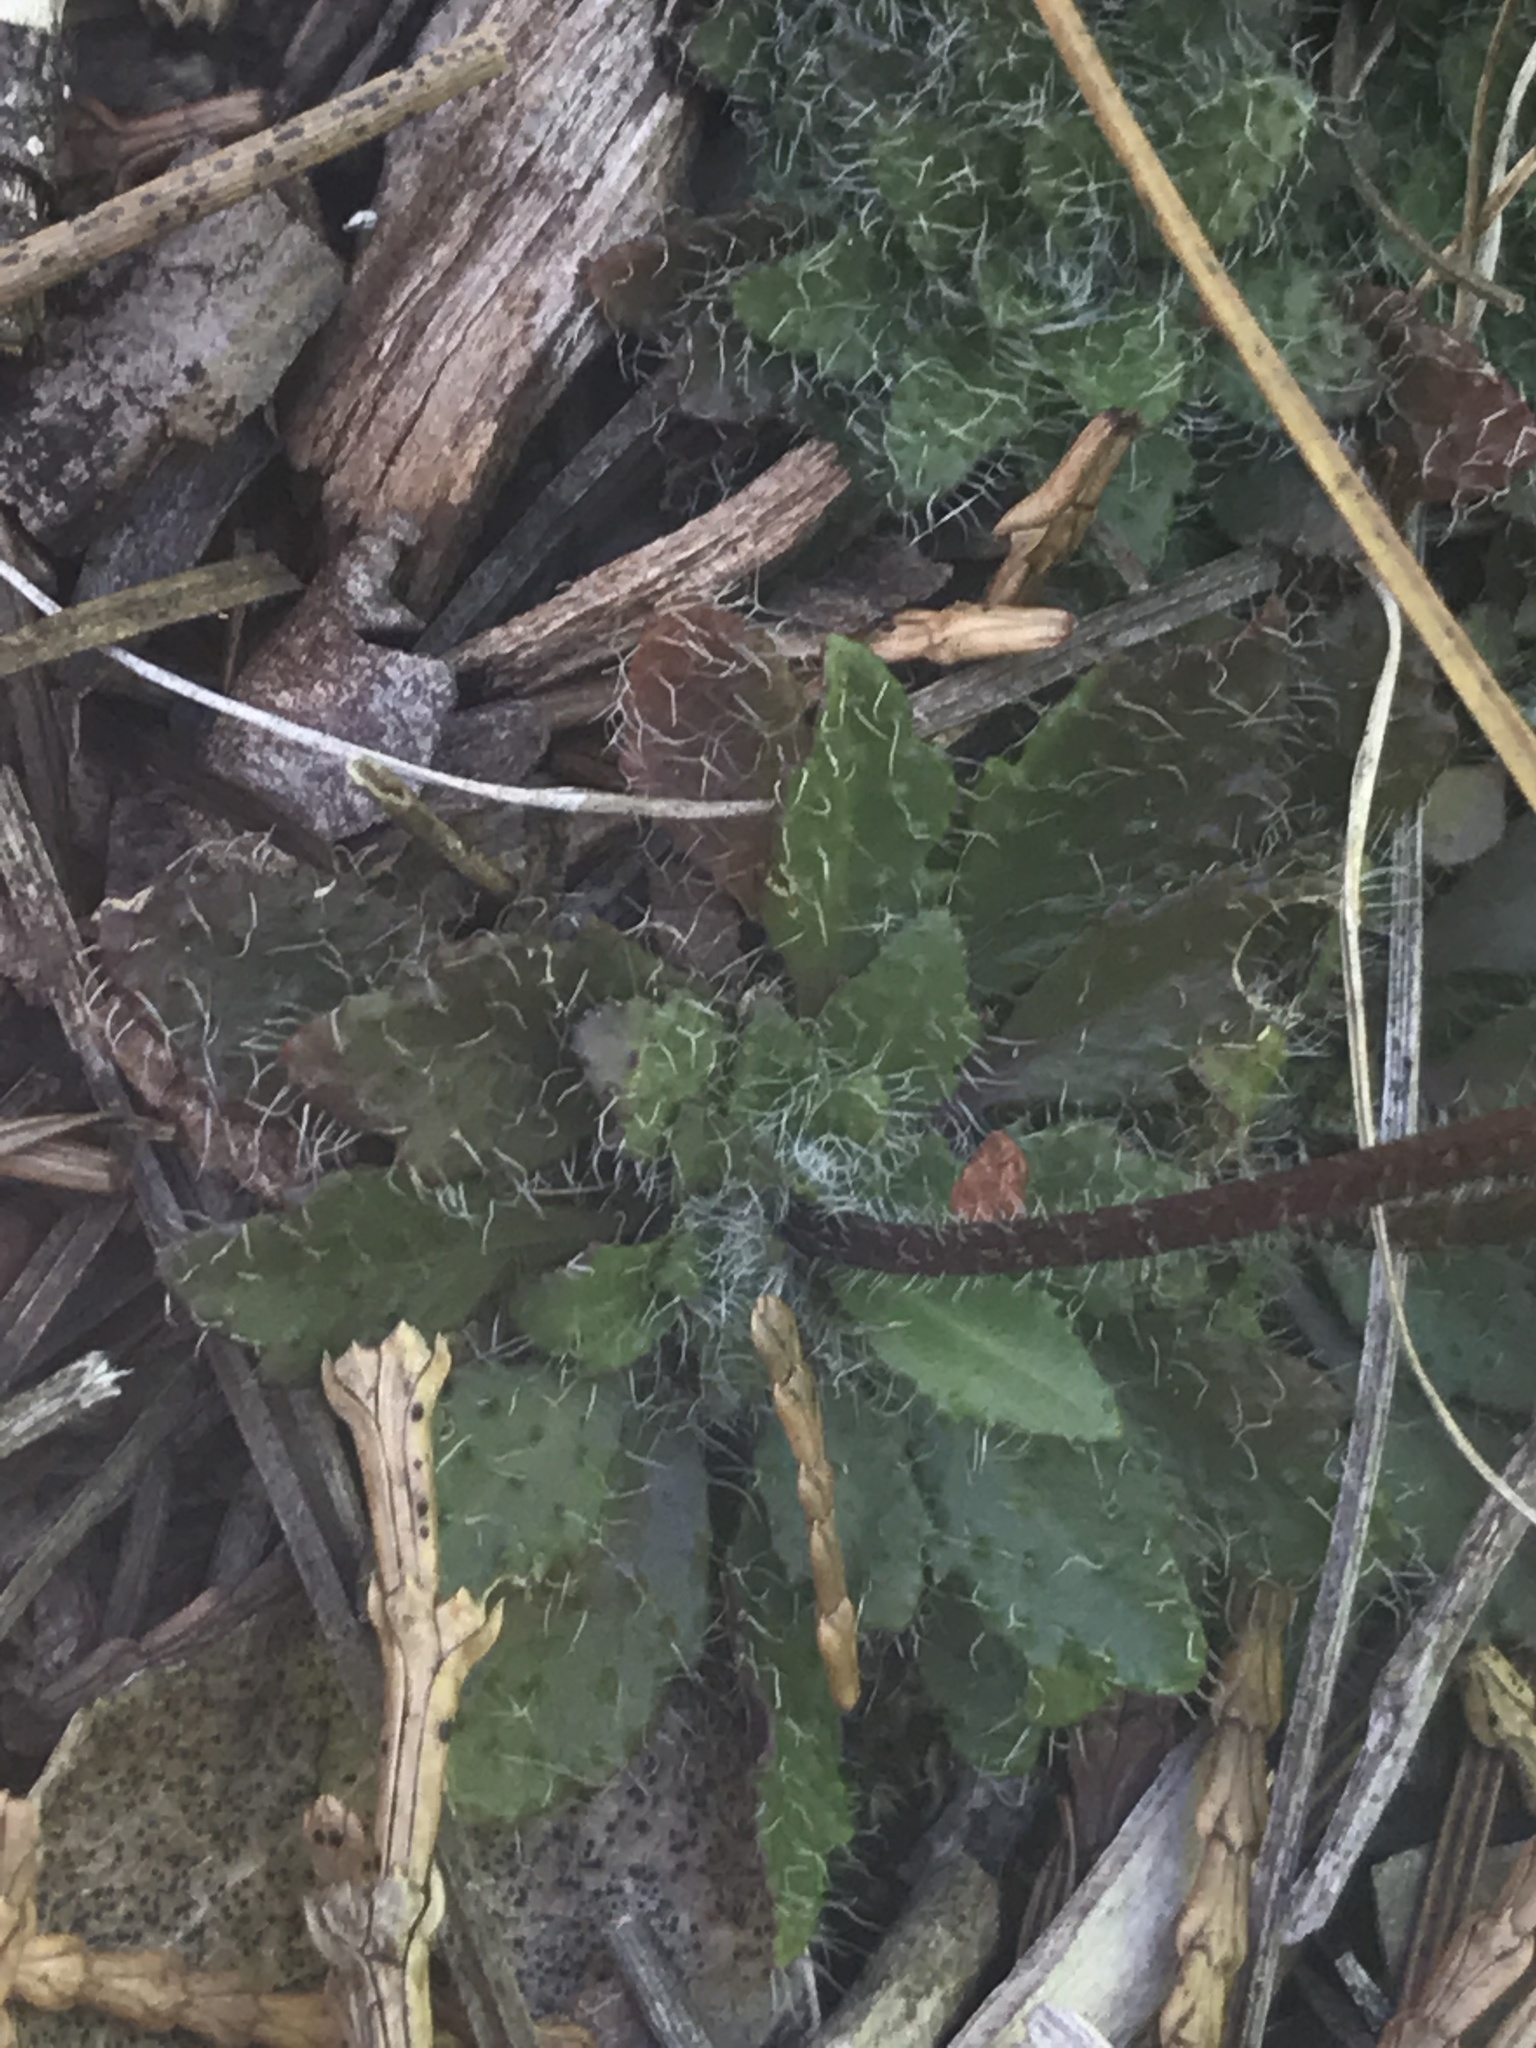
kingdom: Plantae
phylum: Tracheophyta
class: Magnoliopsida
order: Brassicales
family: Brassicaceae
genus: Arabis
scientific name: Arabis aculeolata
